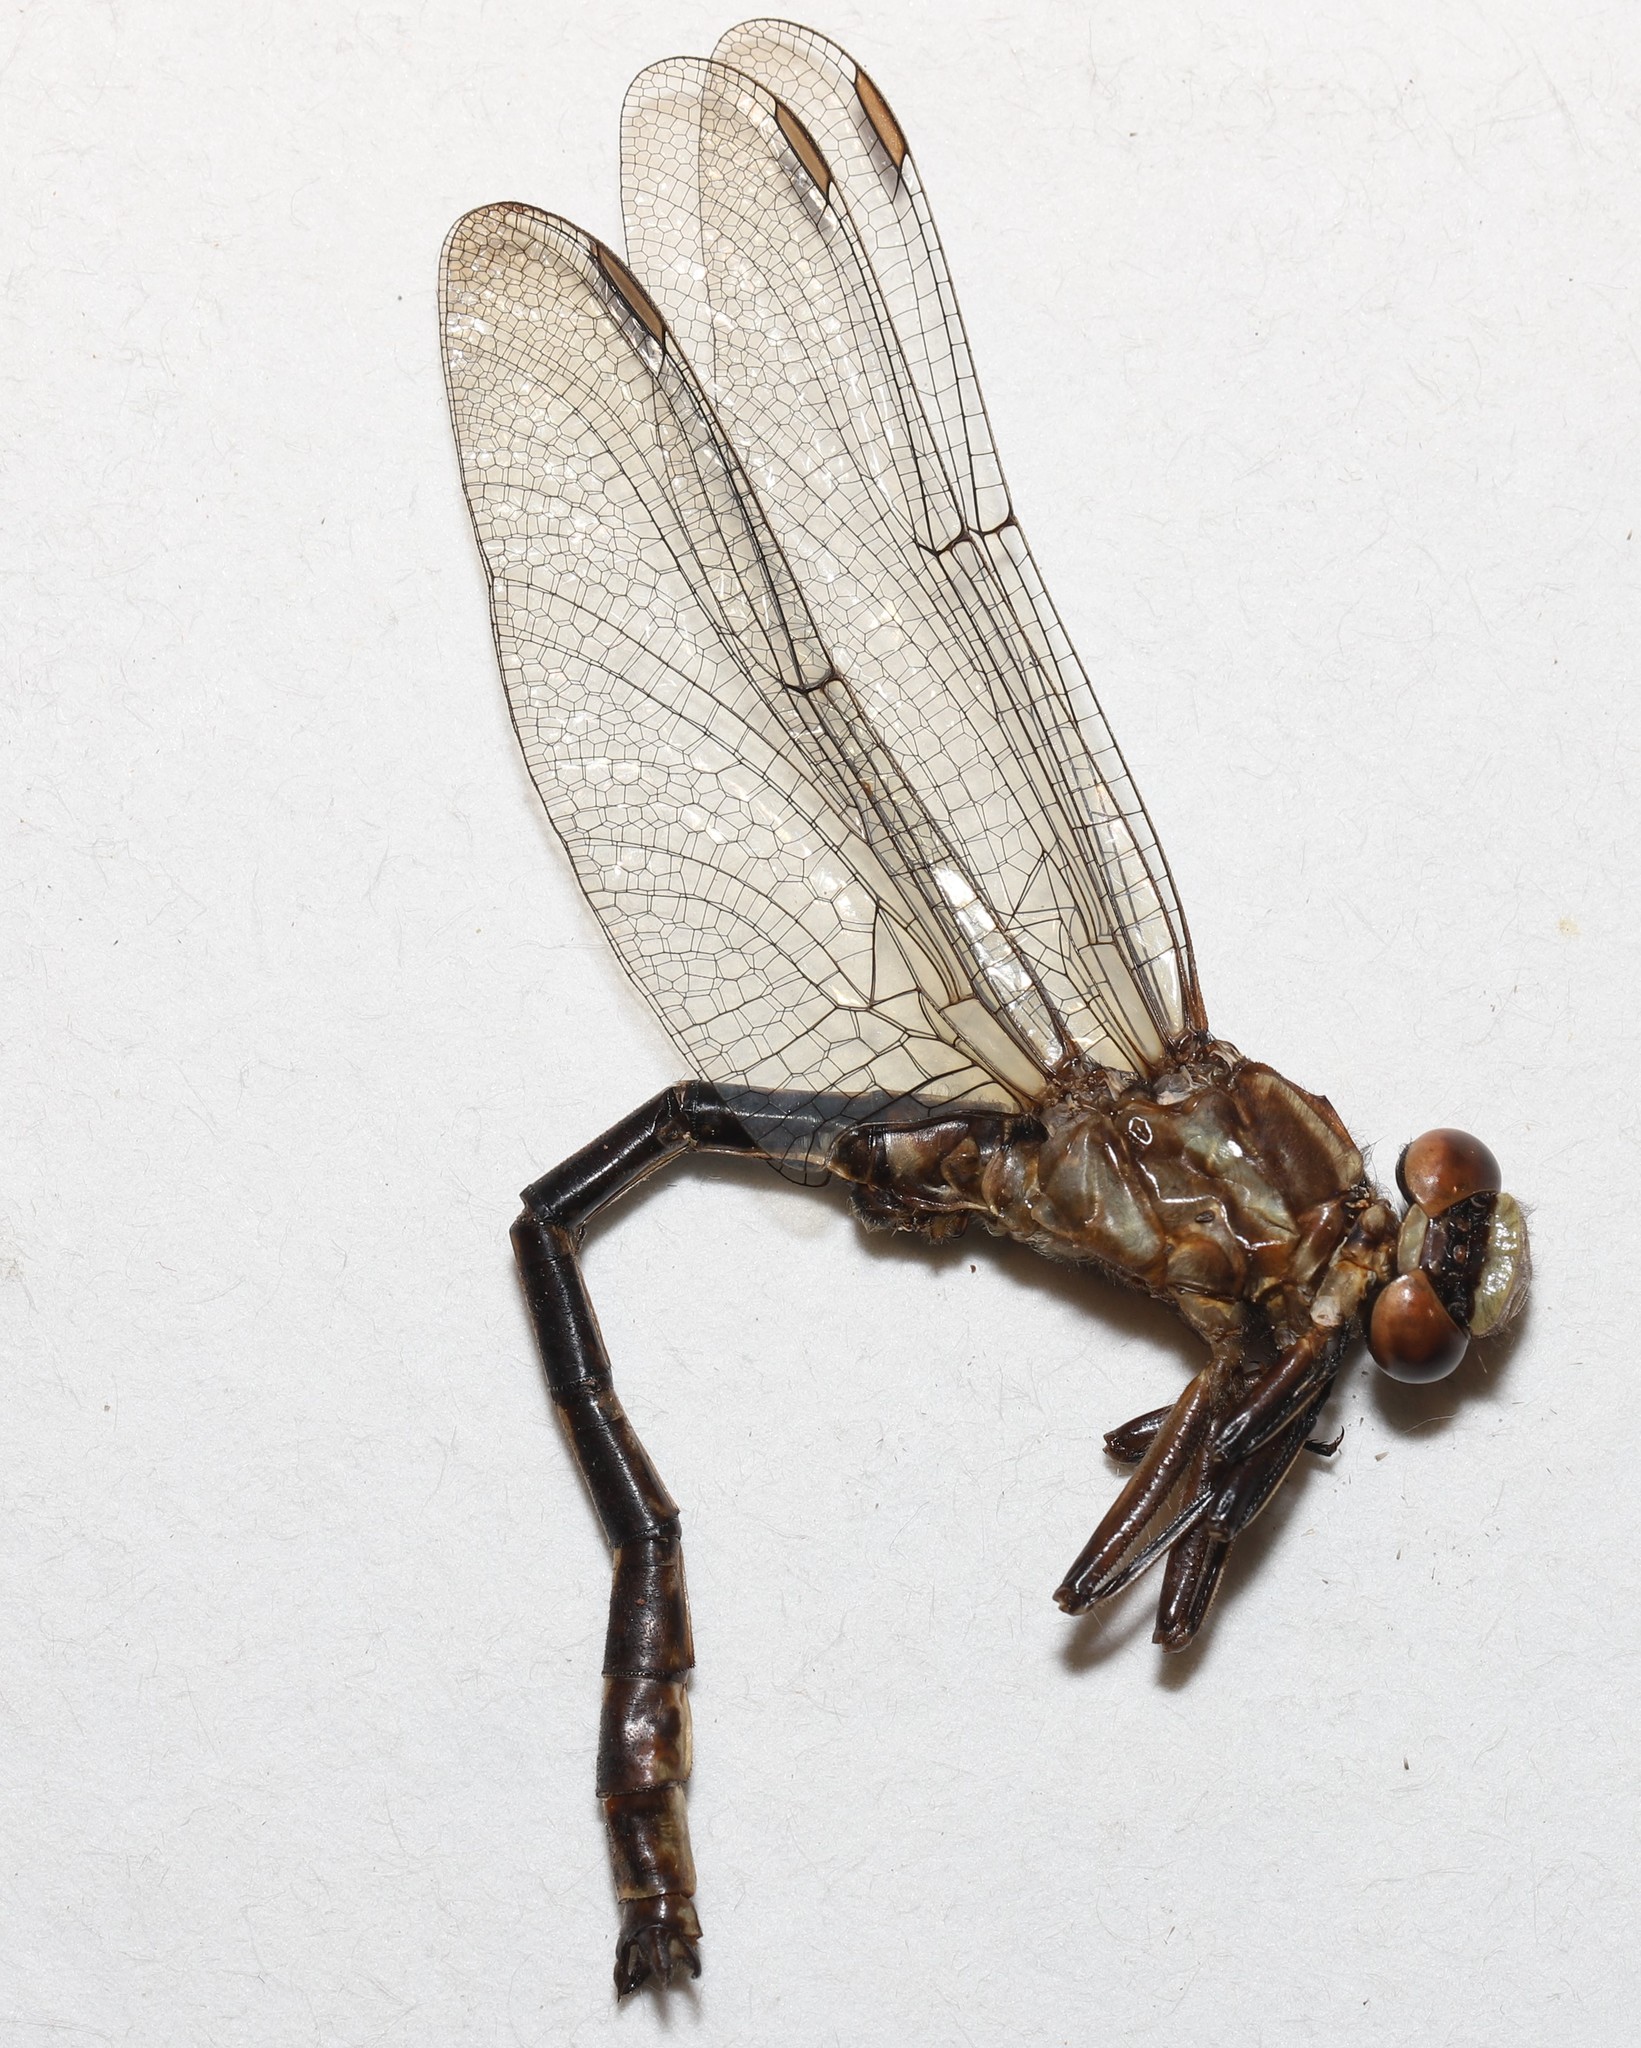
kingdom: Animalia
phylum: Arthropoda
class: Insecta
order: Odonata
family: Gomphidae
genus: Phanogomphus
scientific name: Phanogomphus lividus
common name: Ashy clubtail
